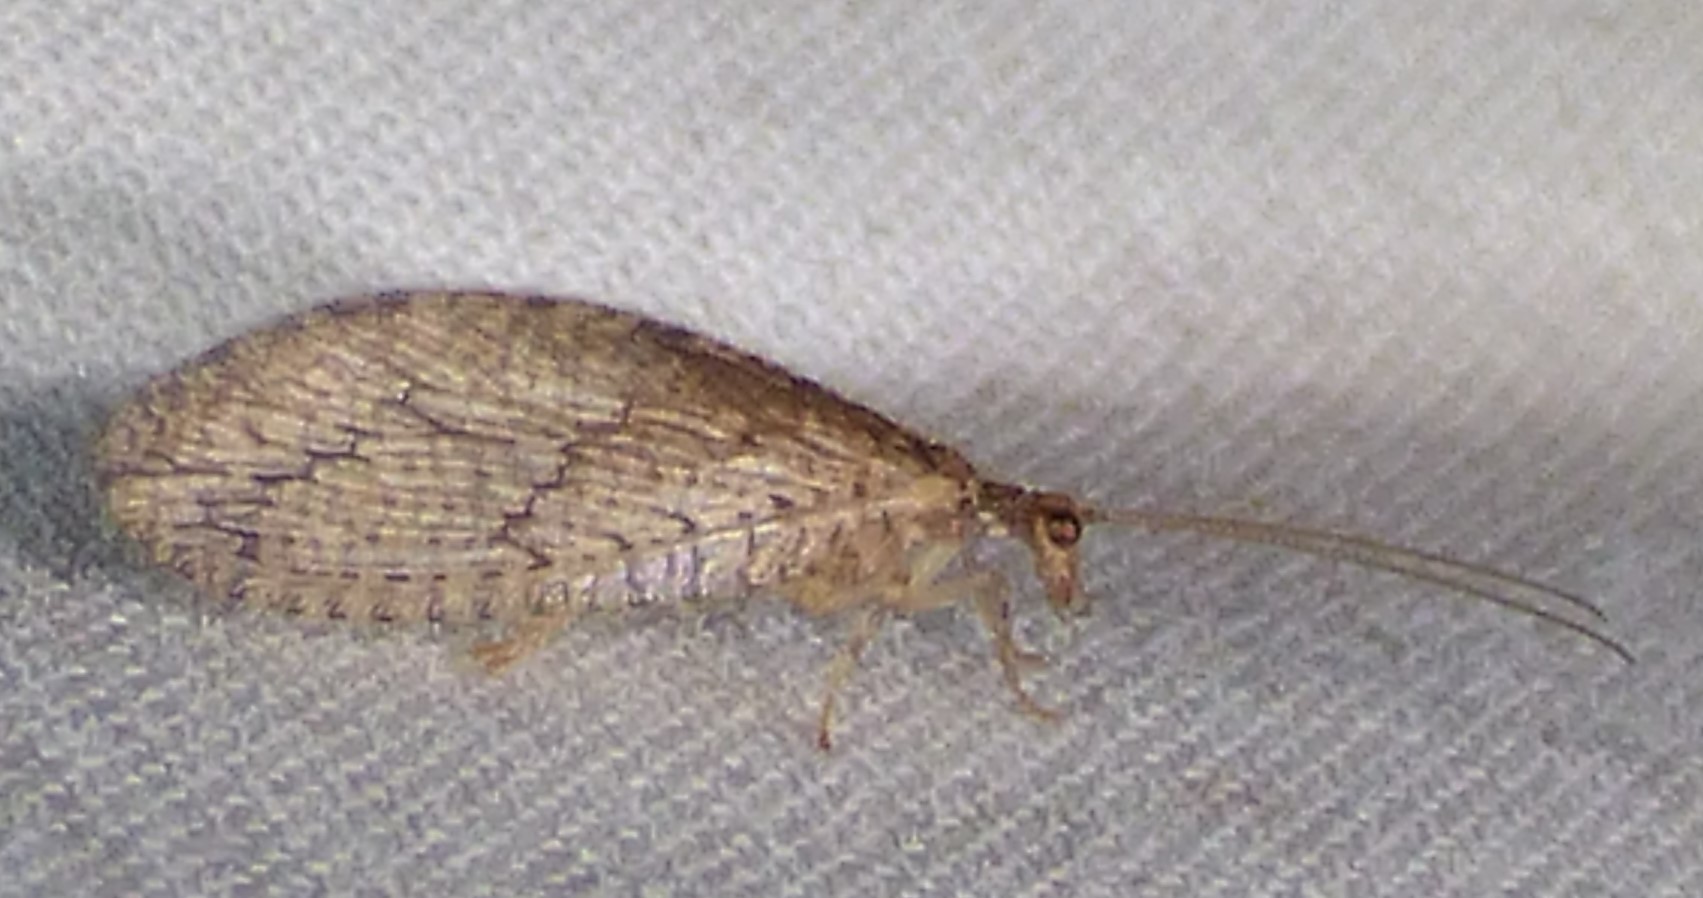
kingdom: Animalia
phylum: Arthropoda
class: Insecta
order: Neuroptera
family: Hemerobiidae
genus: Micromus
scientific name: Micromus posticus
